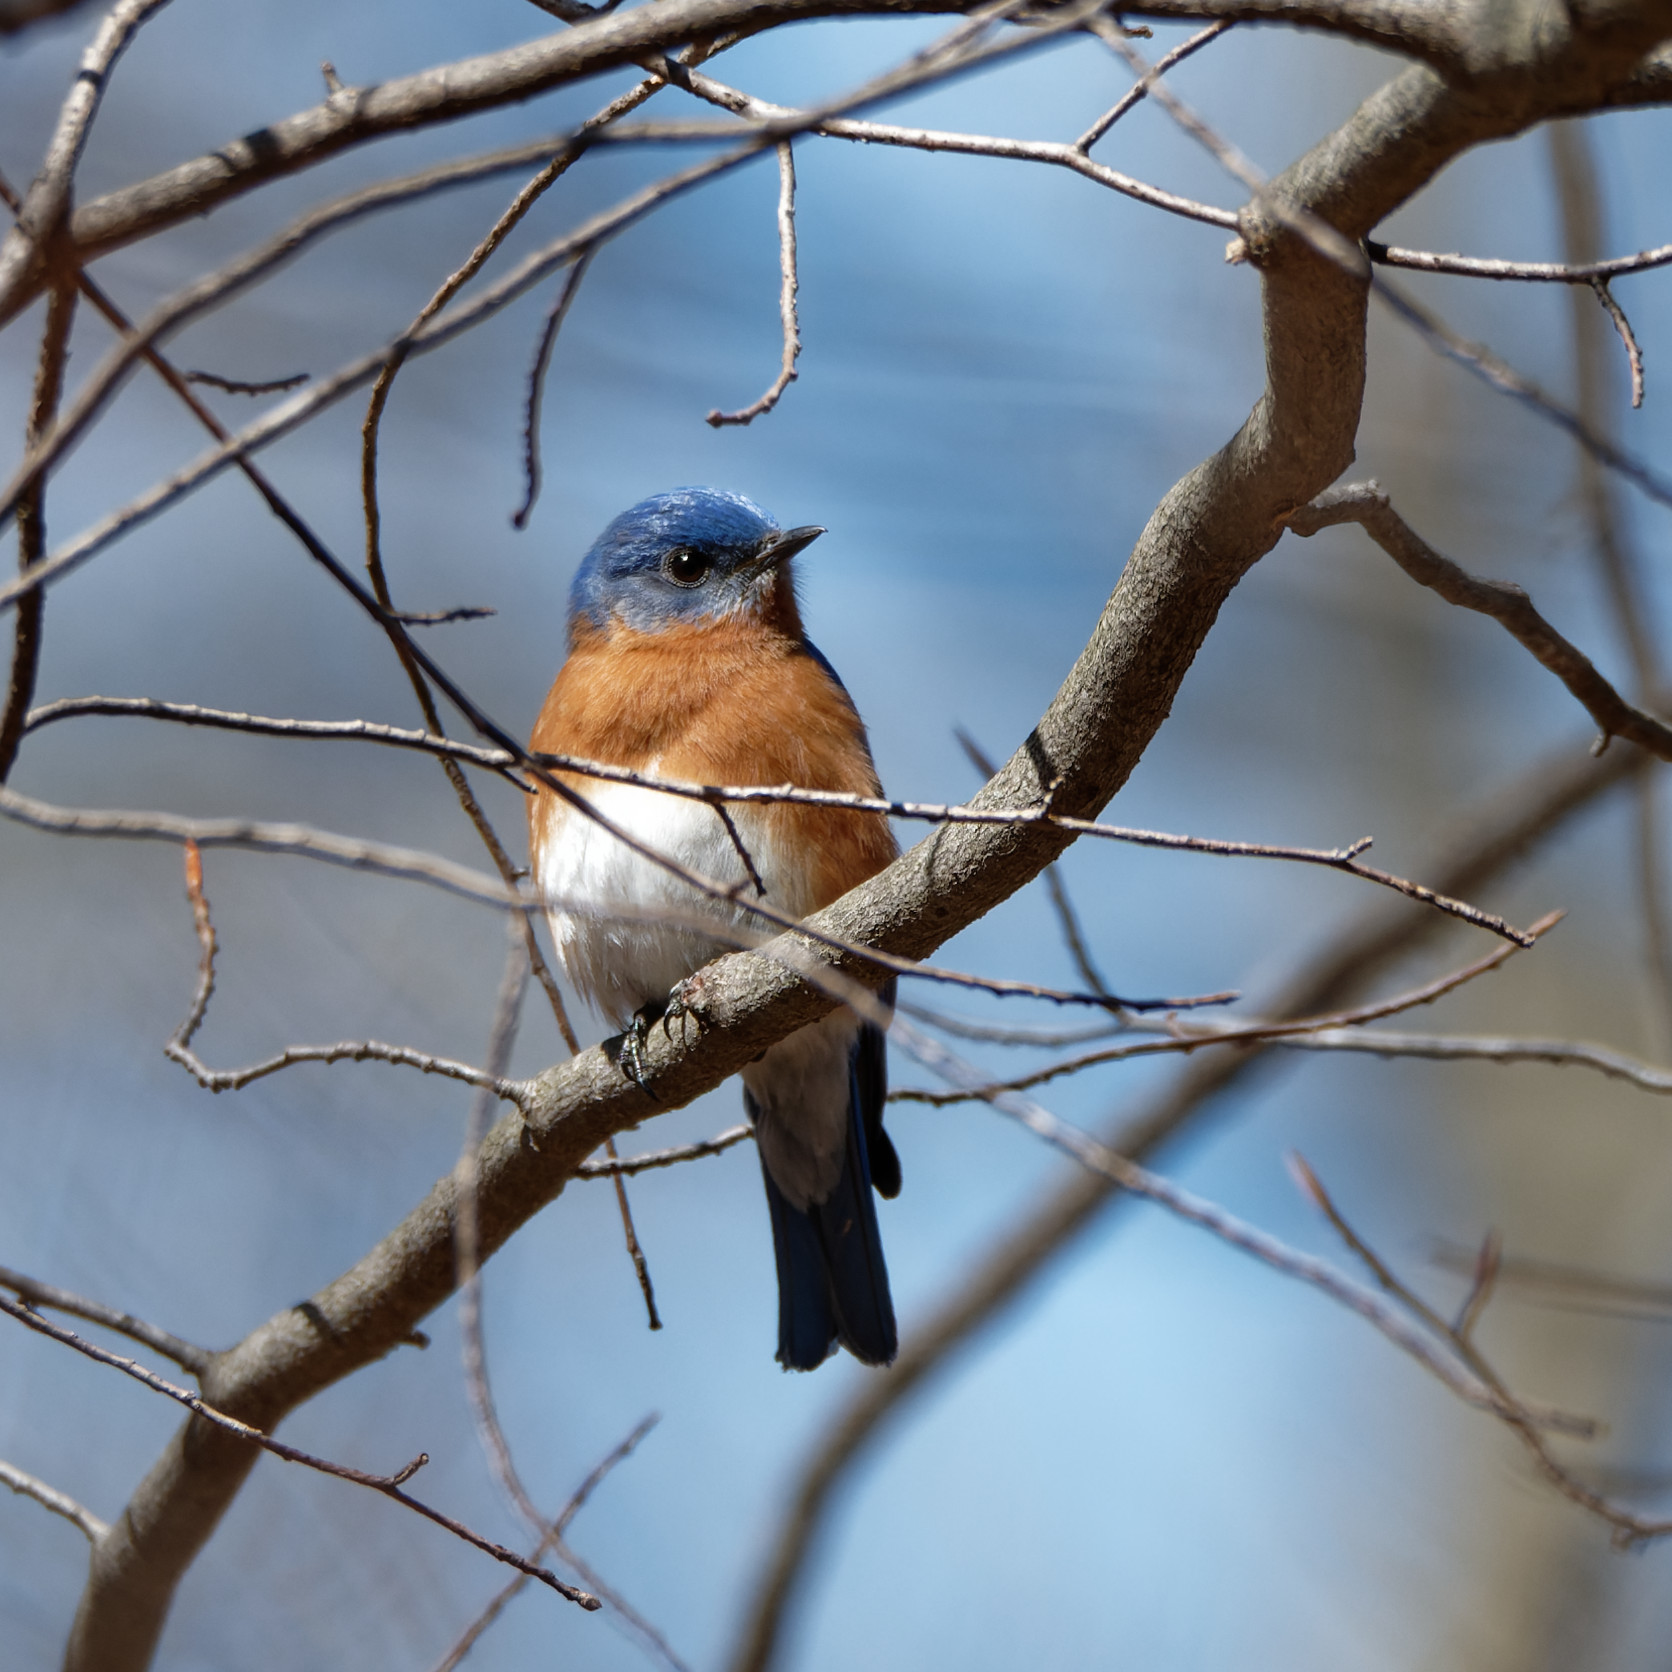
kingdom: Animalia
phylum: Chordata
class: Aves
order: Passeriformes
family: Turdidae
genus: Sialia
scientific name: Sialia sialis
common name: Eastern bluebird
